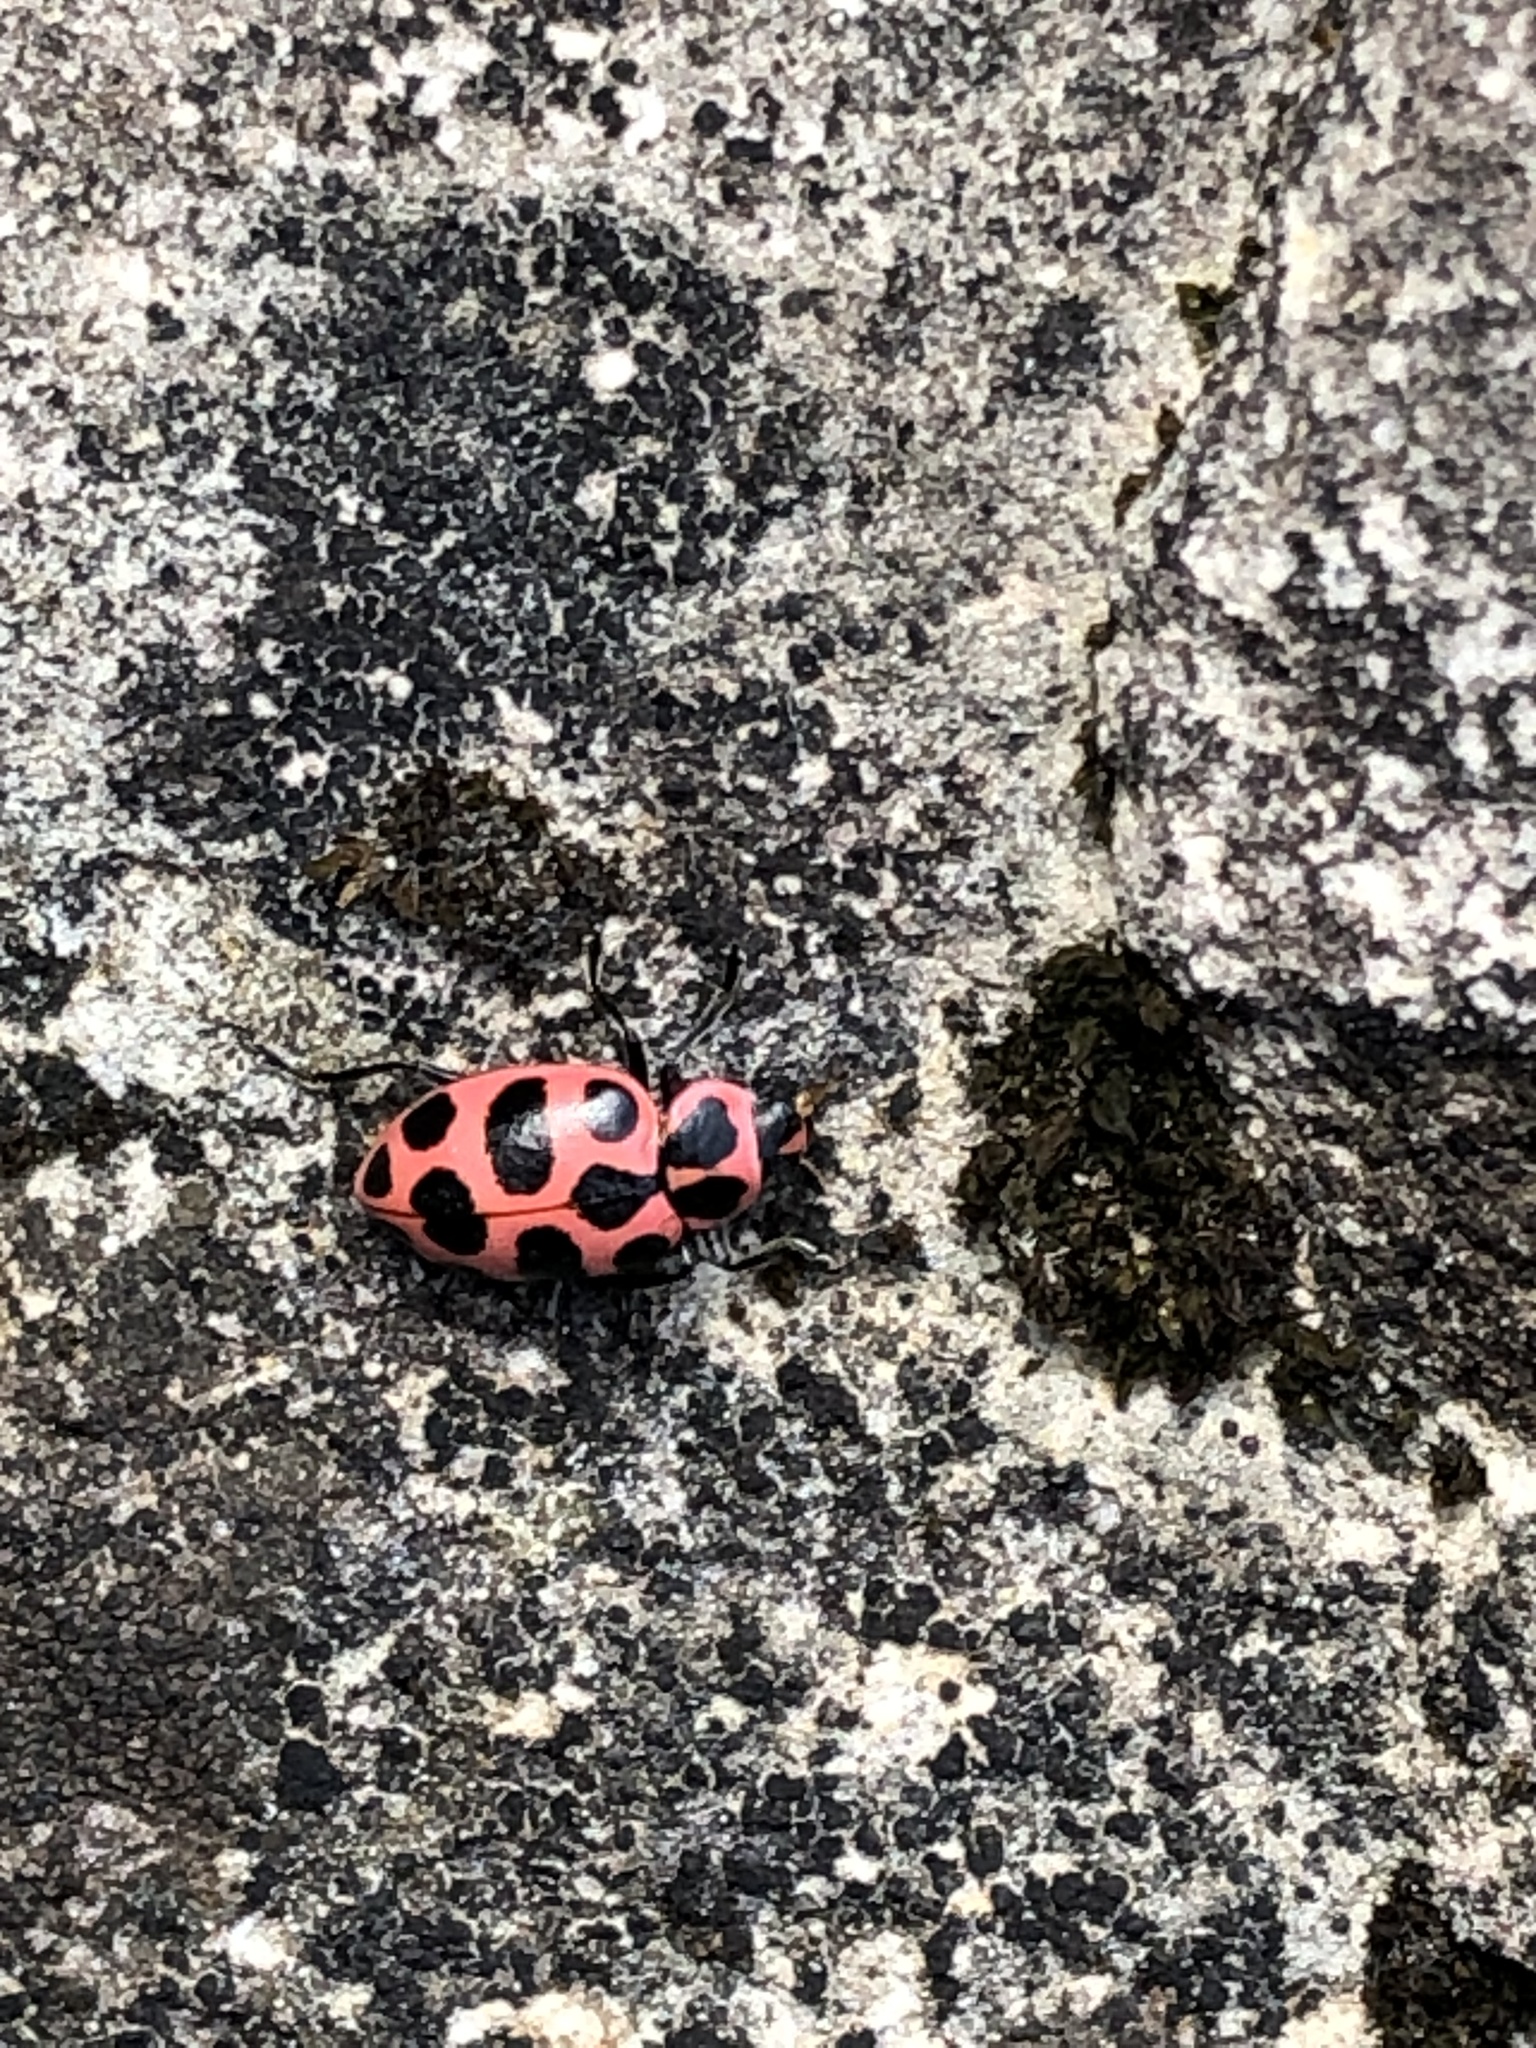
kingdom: Animalia
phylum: Arthropoda
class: Insecta
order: Coleoptera
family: Coccinellidae
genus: Coleomegilla
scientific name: Coleomegilla maculata
